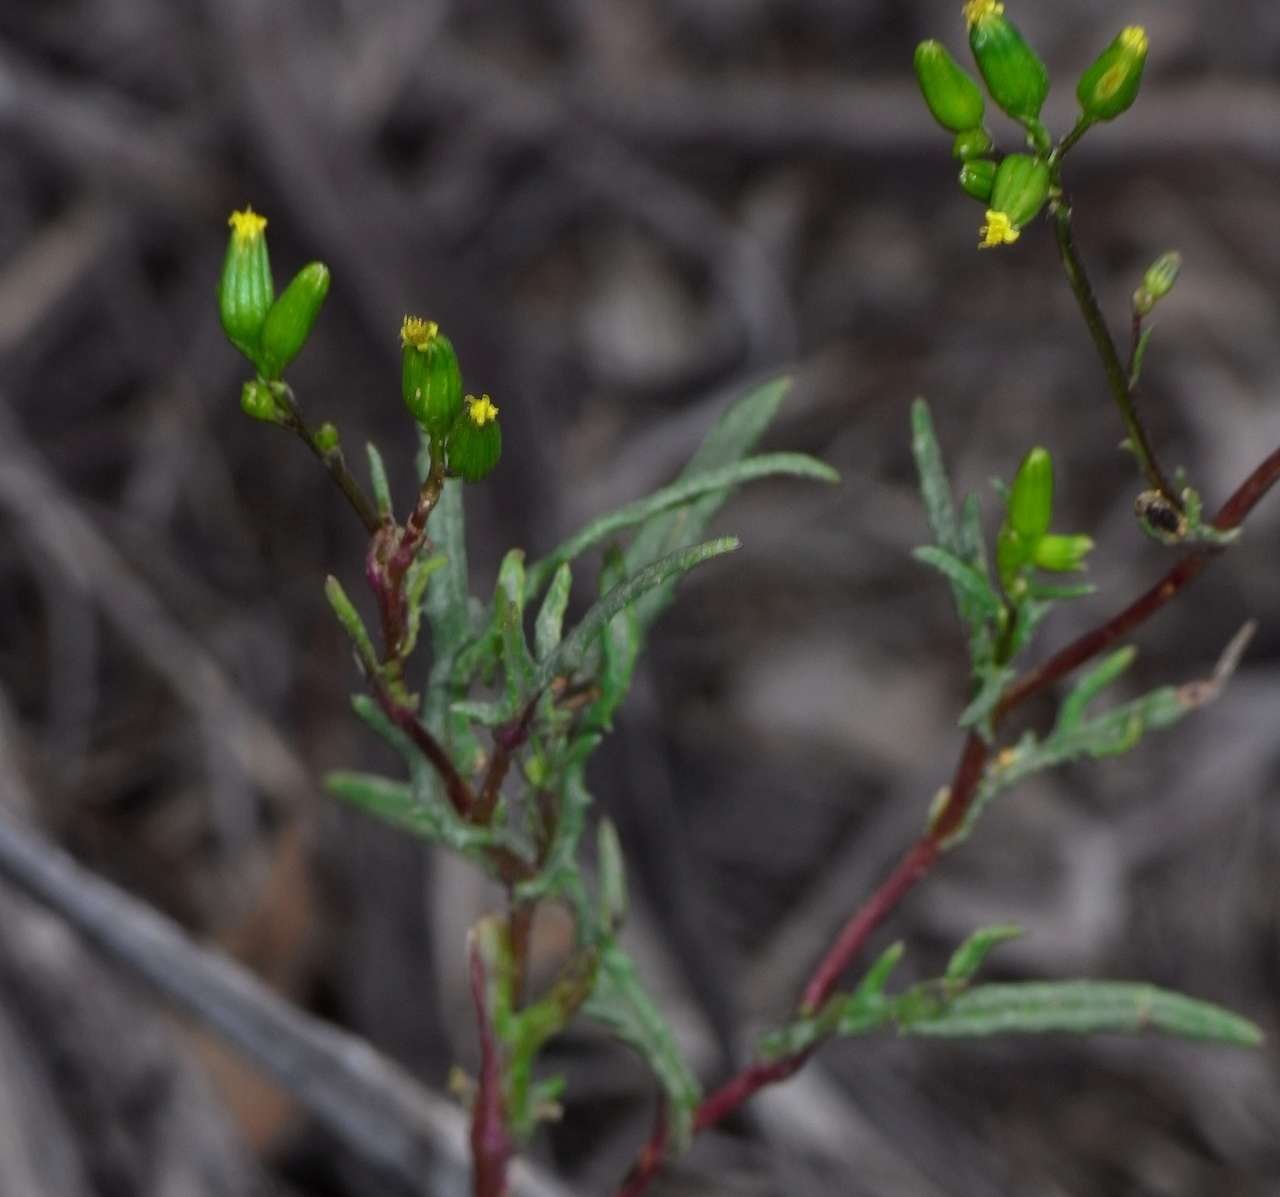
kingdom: Plantae
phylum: Tracheophyta
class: Magnoliopsida
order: Asterales
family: Asteraceae
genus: Senecio
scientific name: Senecio glossanthus
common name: Slender groundsel
